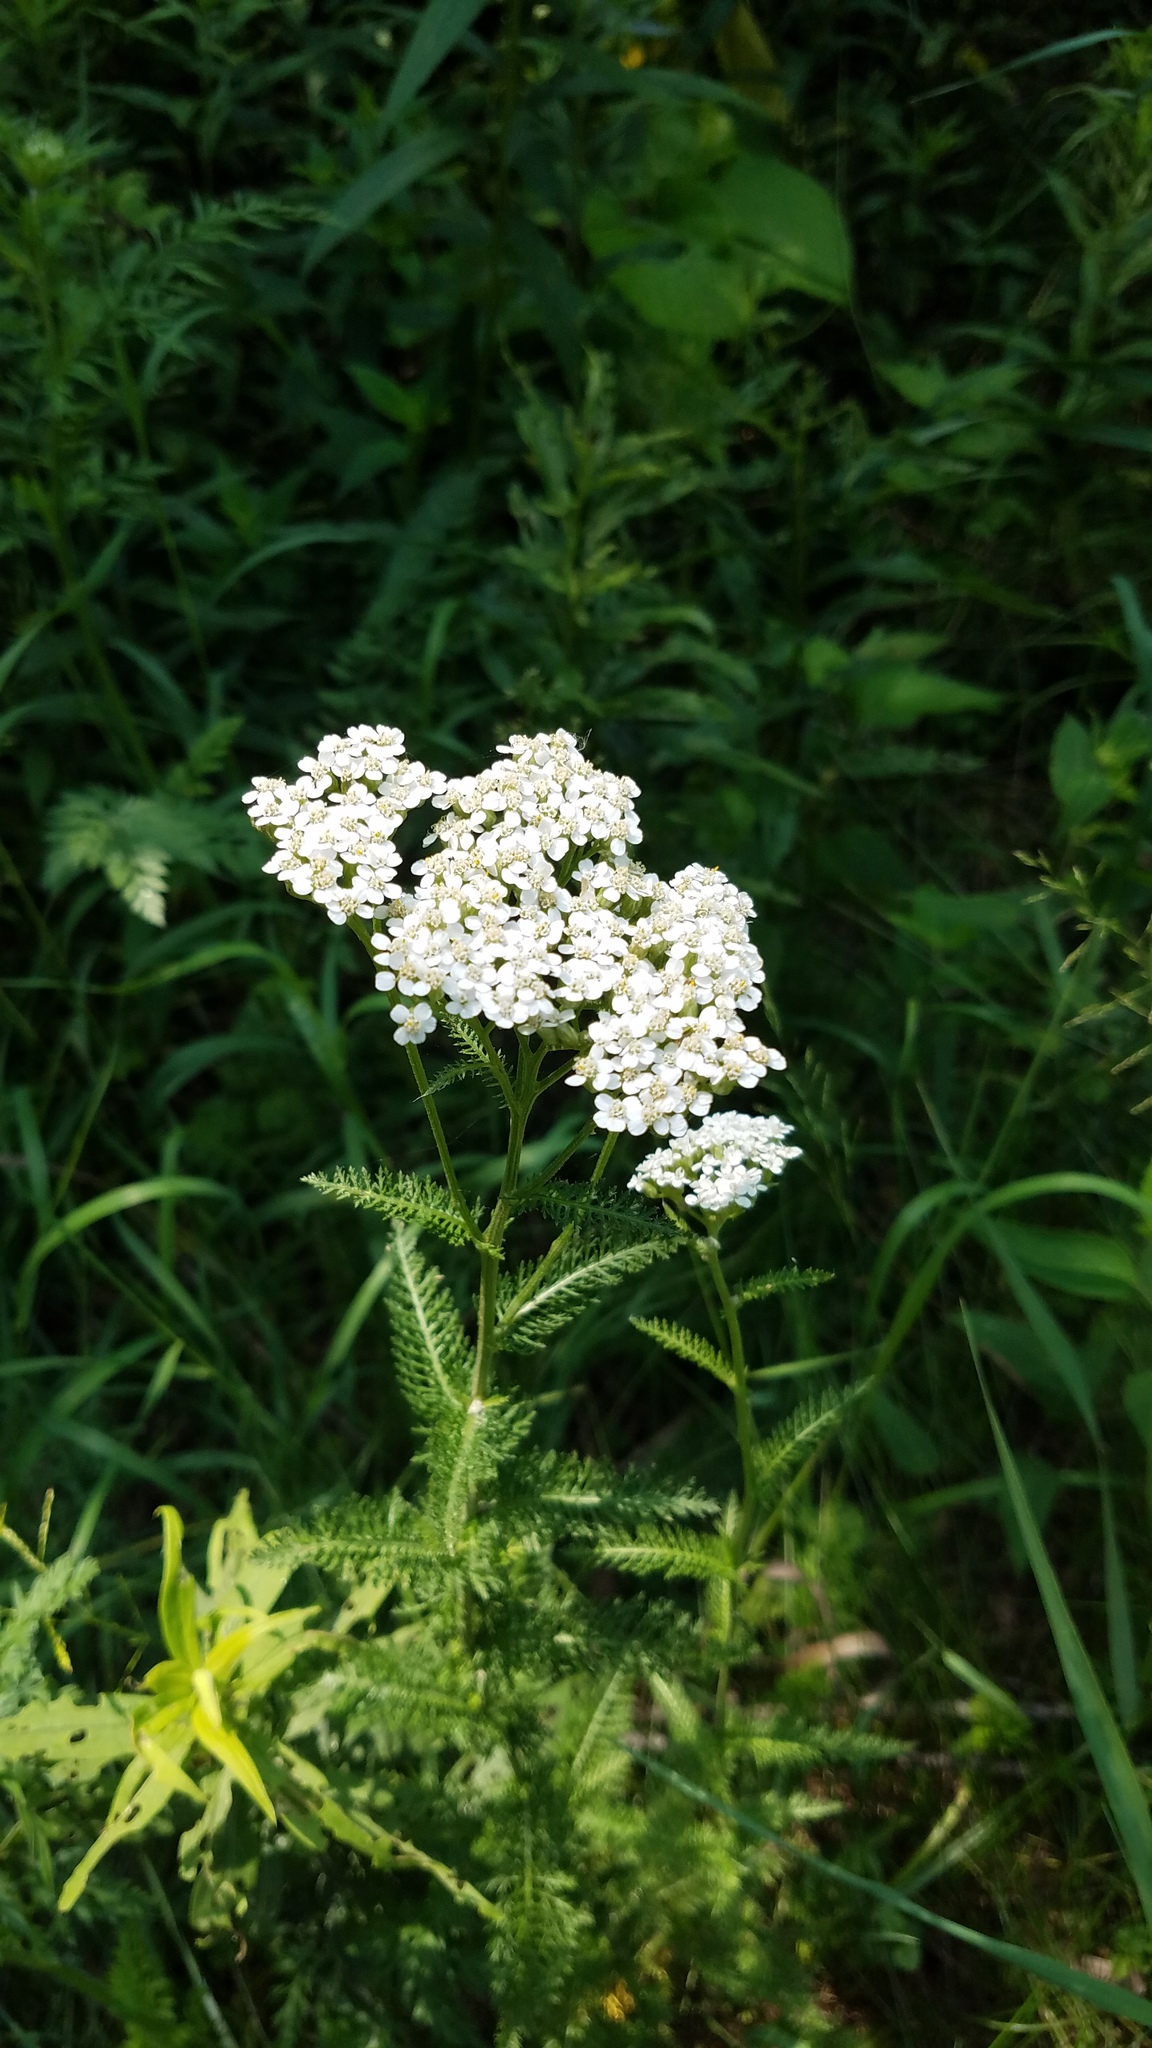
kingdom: Plantae
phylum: Tracheophyta
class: Magnoliopsida
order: Asterales
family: Asteraceae
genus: Achillea
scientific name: Achillea millefolium
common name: Yarrow
